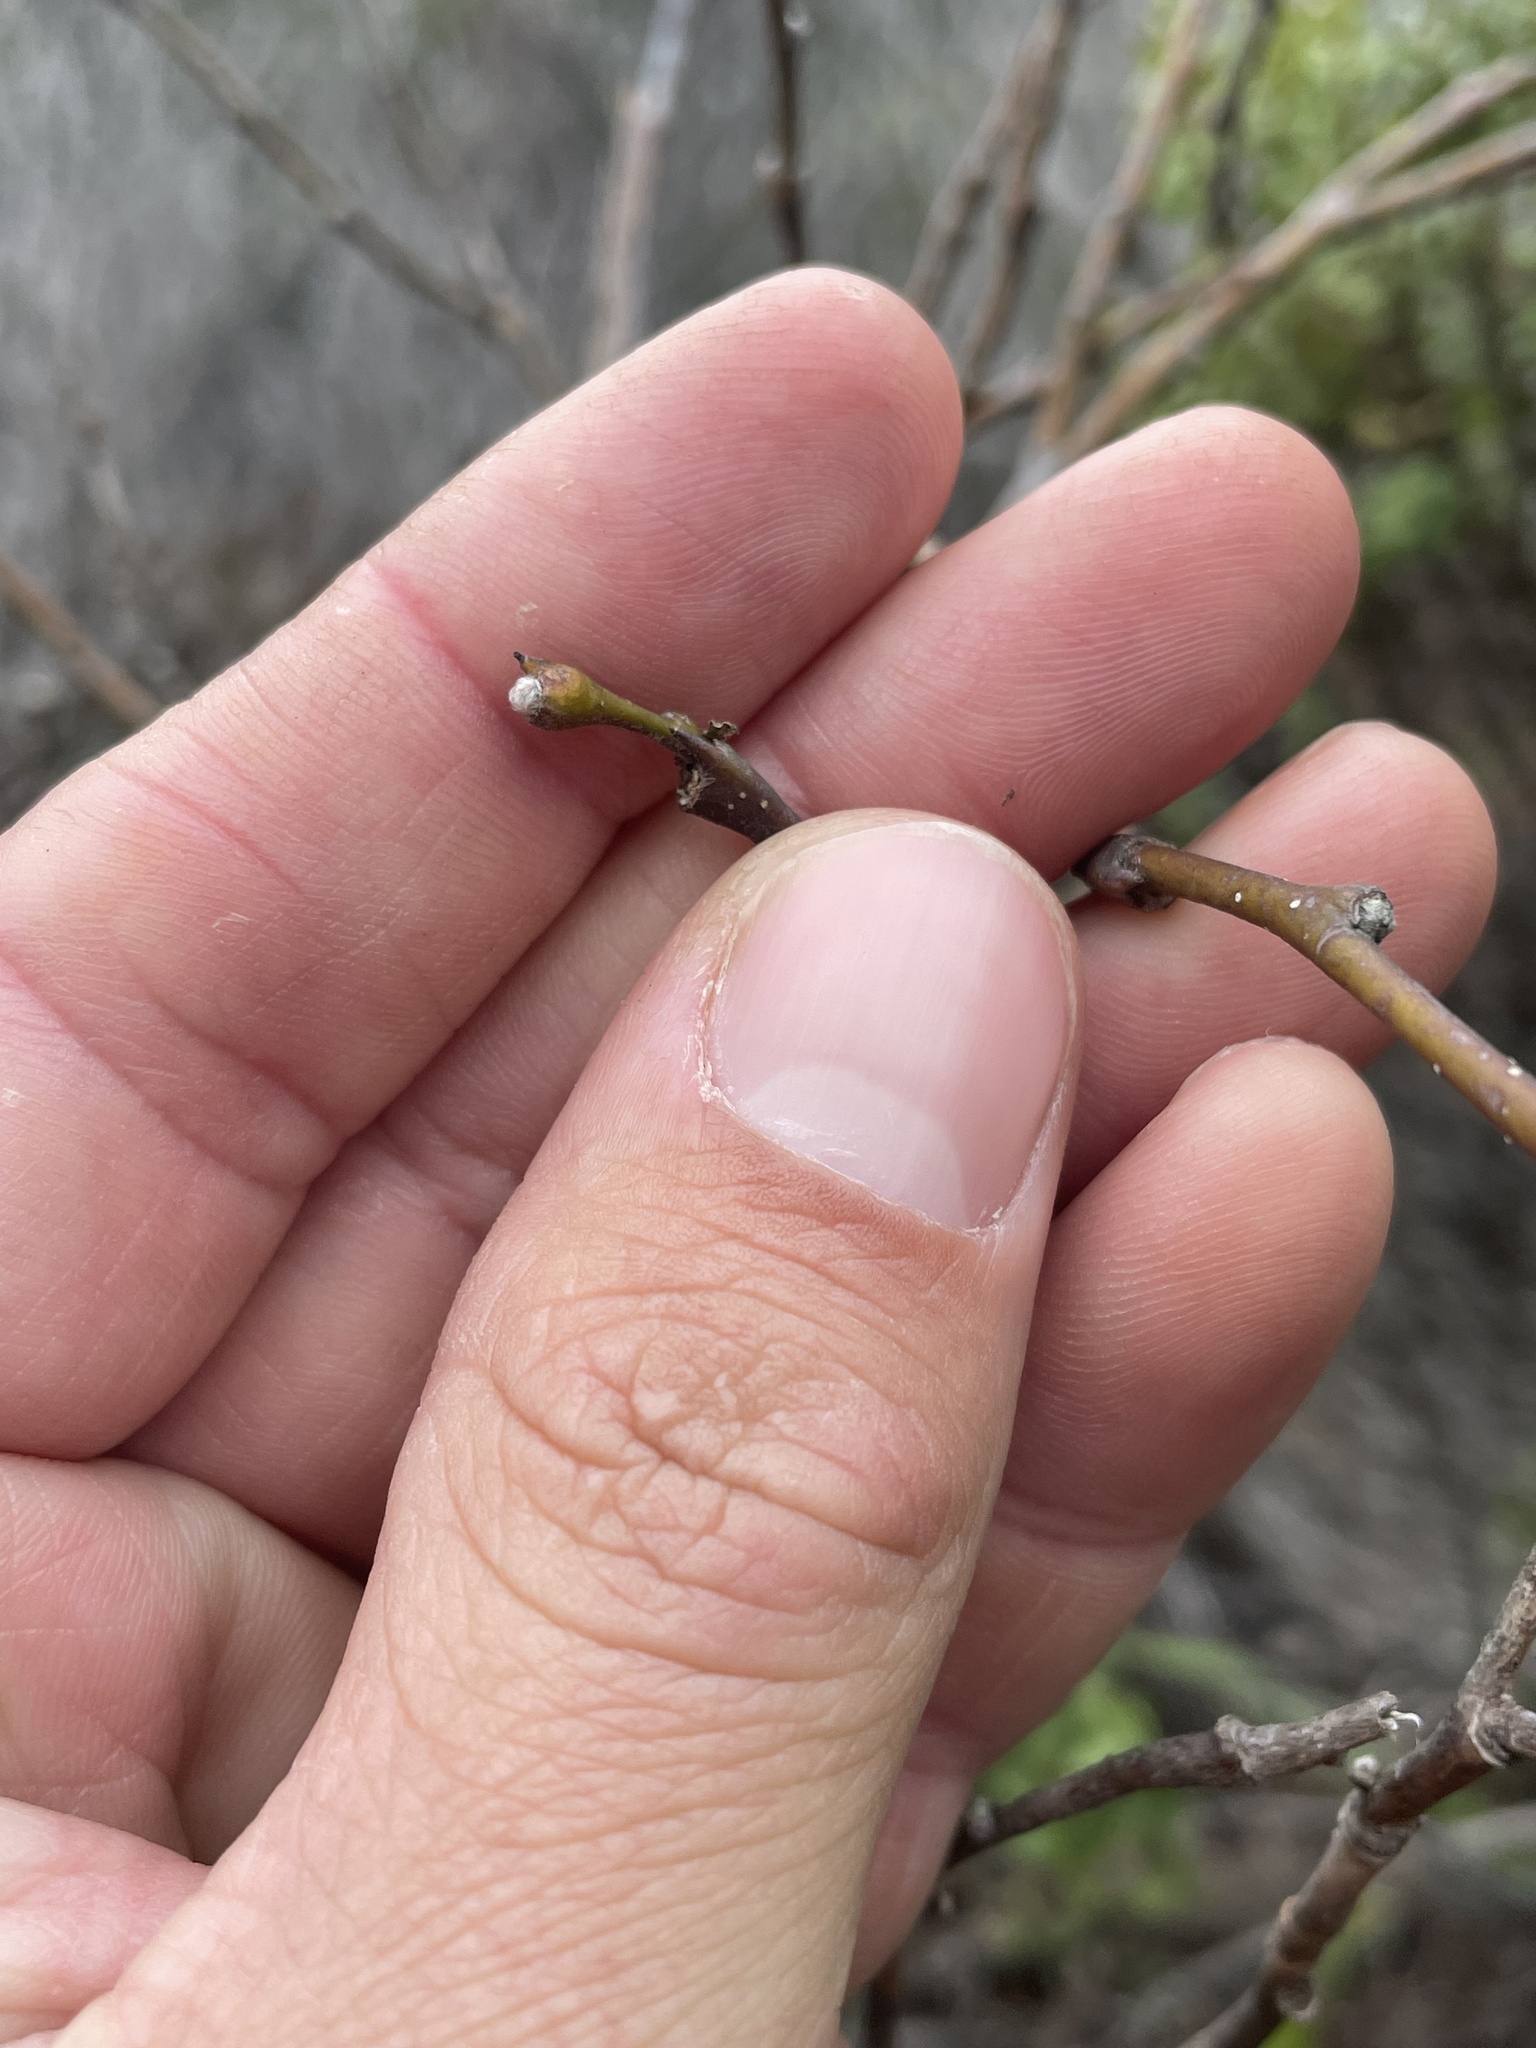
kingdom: Plantae
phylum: Tracheophyta
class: Magnoliopsida
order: Malvales
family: Thymelaeaceae
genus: Dirca
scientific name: Dirca occidentalis
